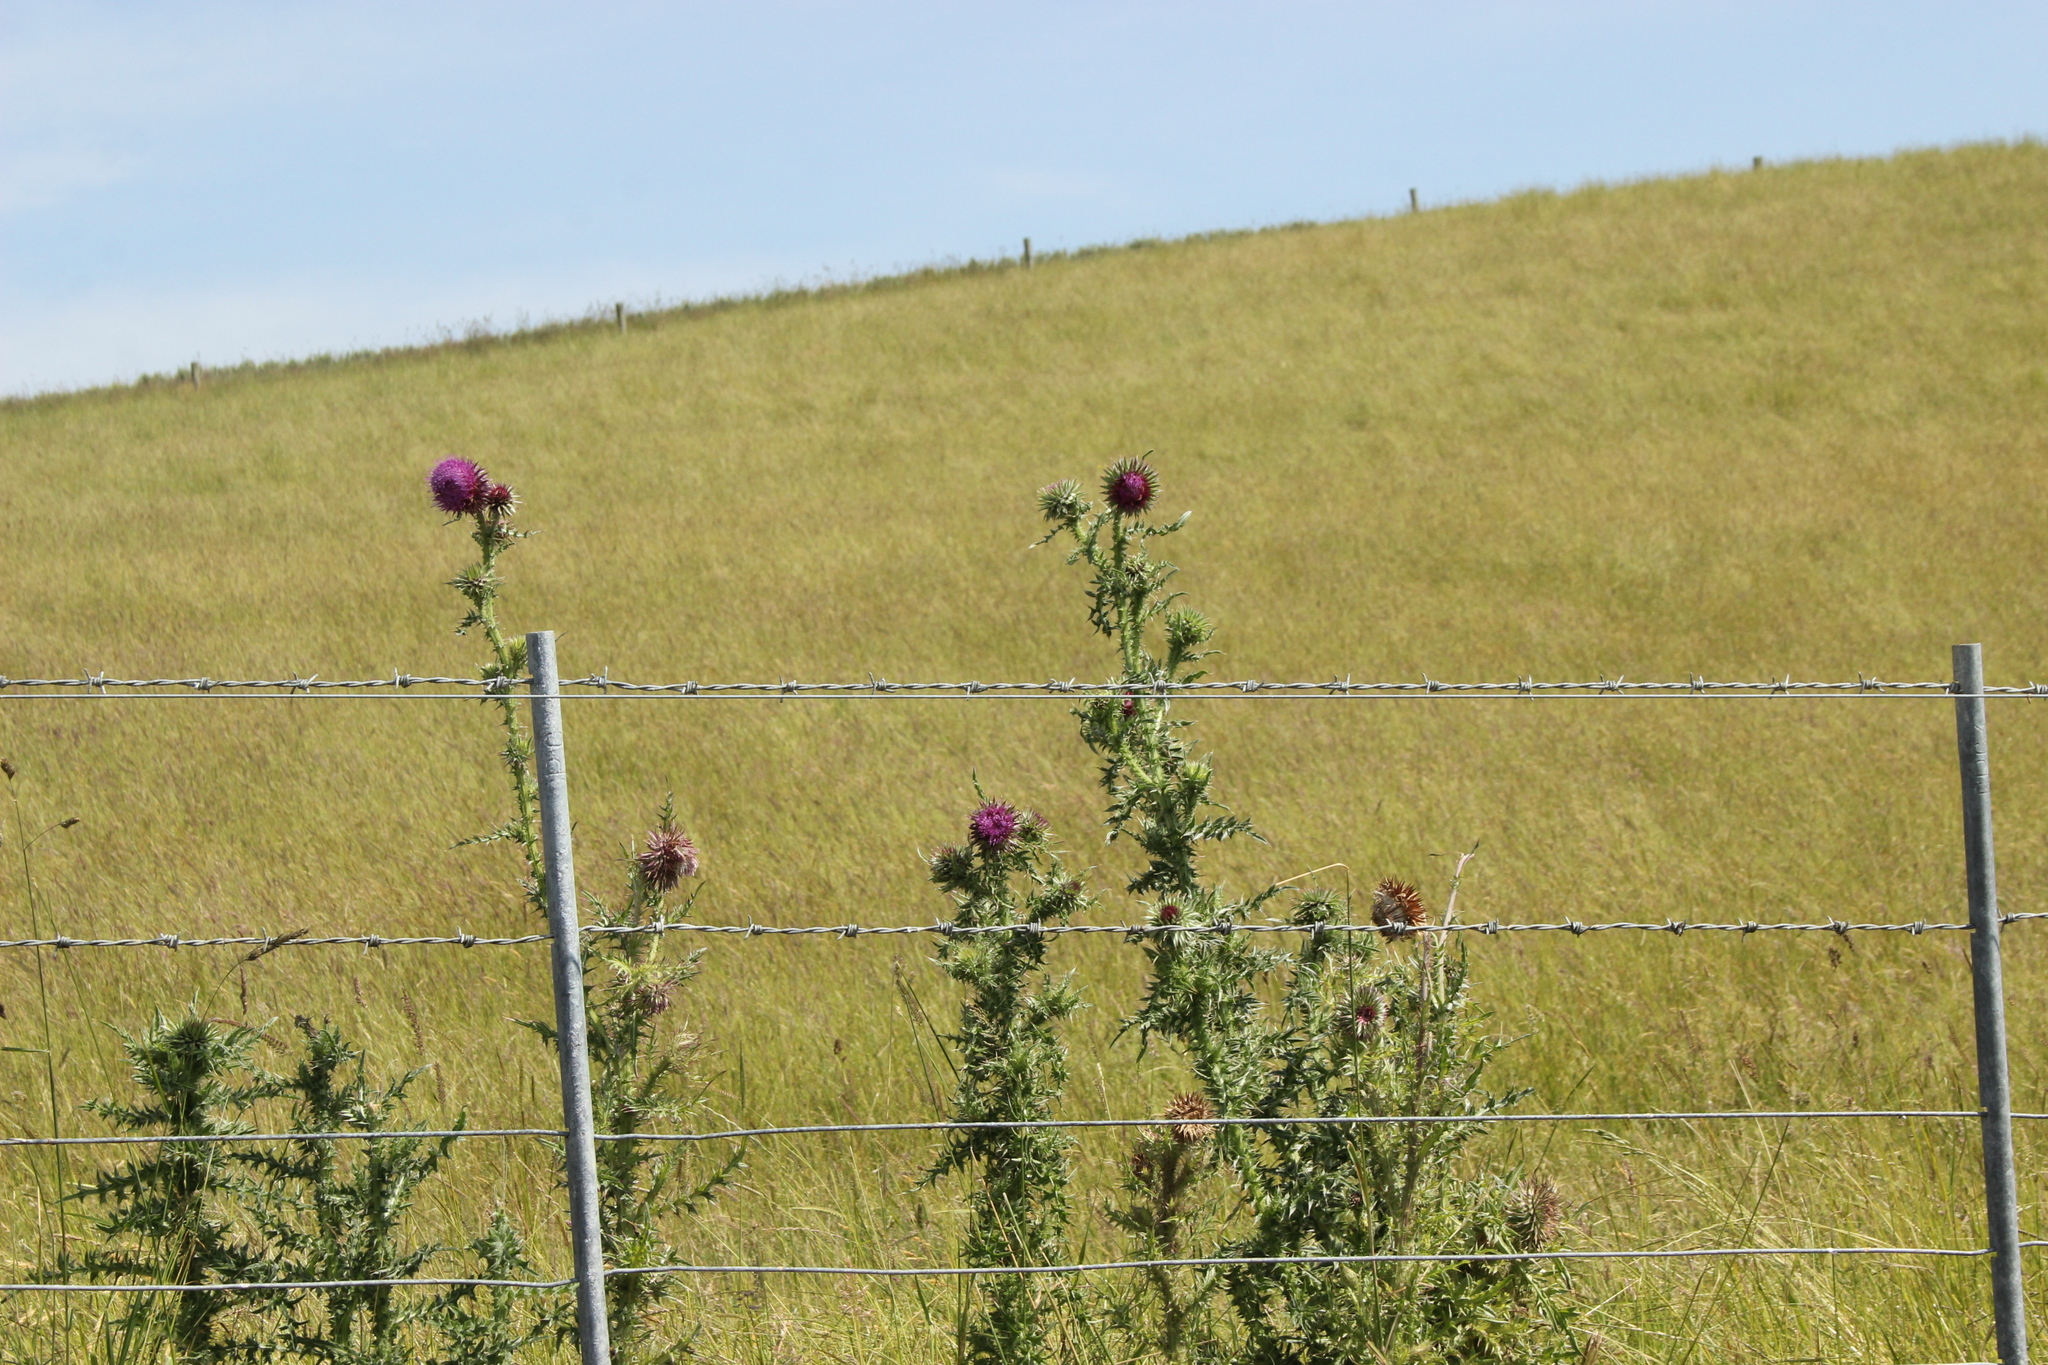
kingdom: Plantae
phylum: Tracheophyta
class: Magnoliopsida
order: Asterales
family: Asteraceae
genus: Carduus
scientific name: Carduus nutans
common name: Musk thistle
